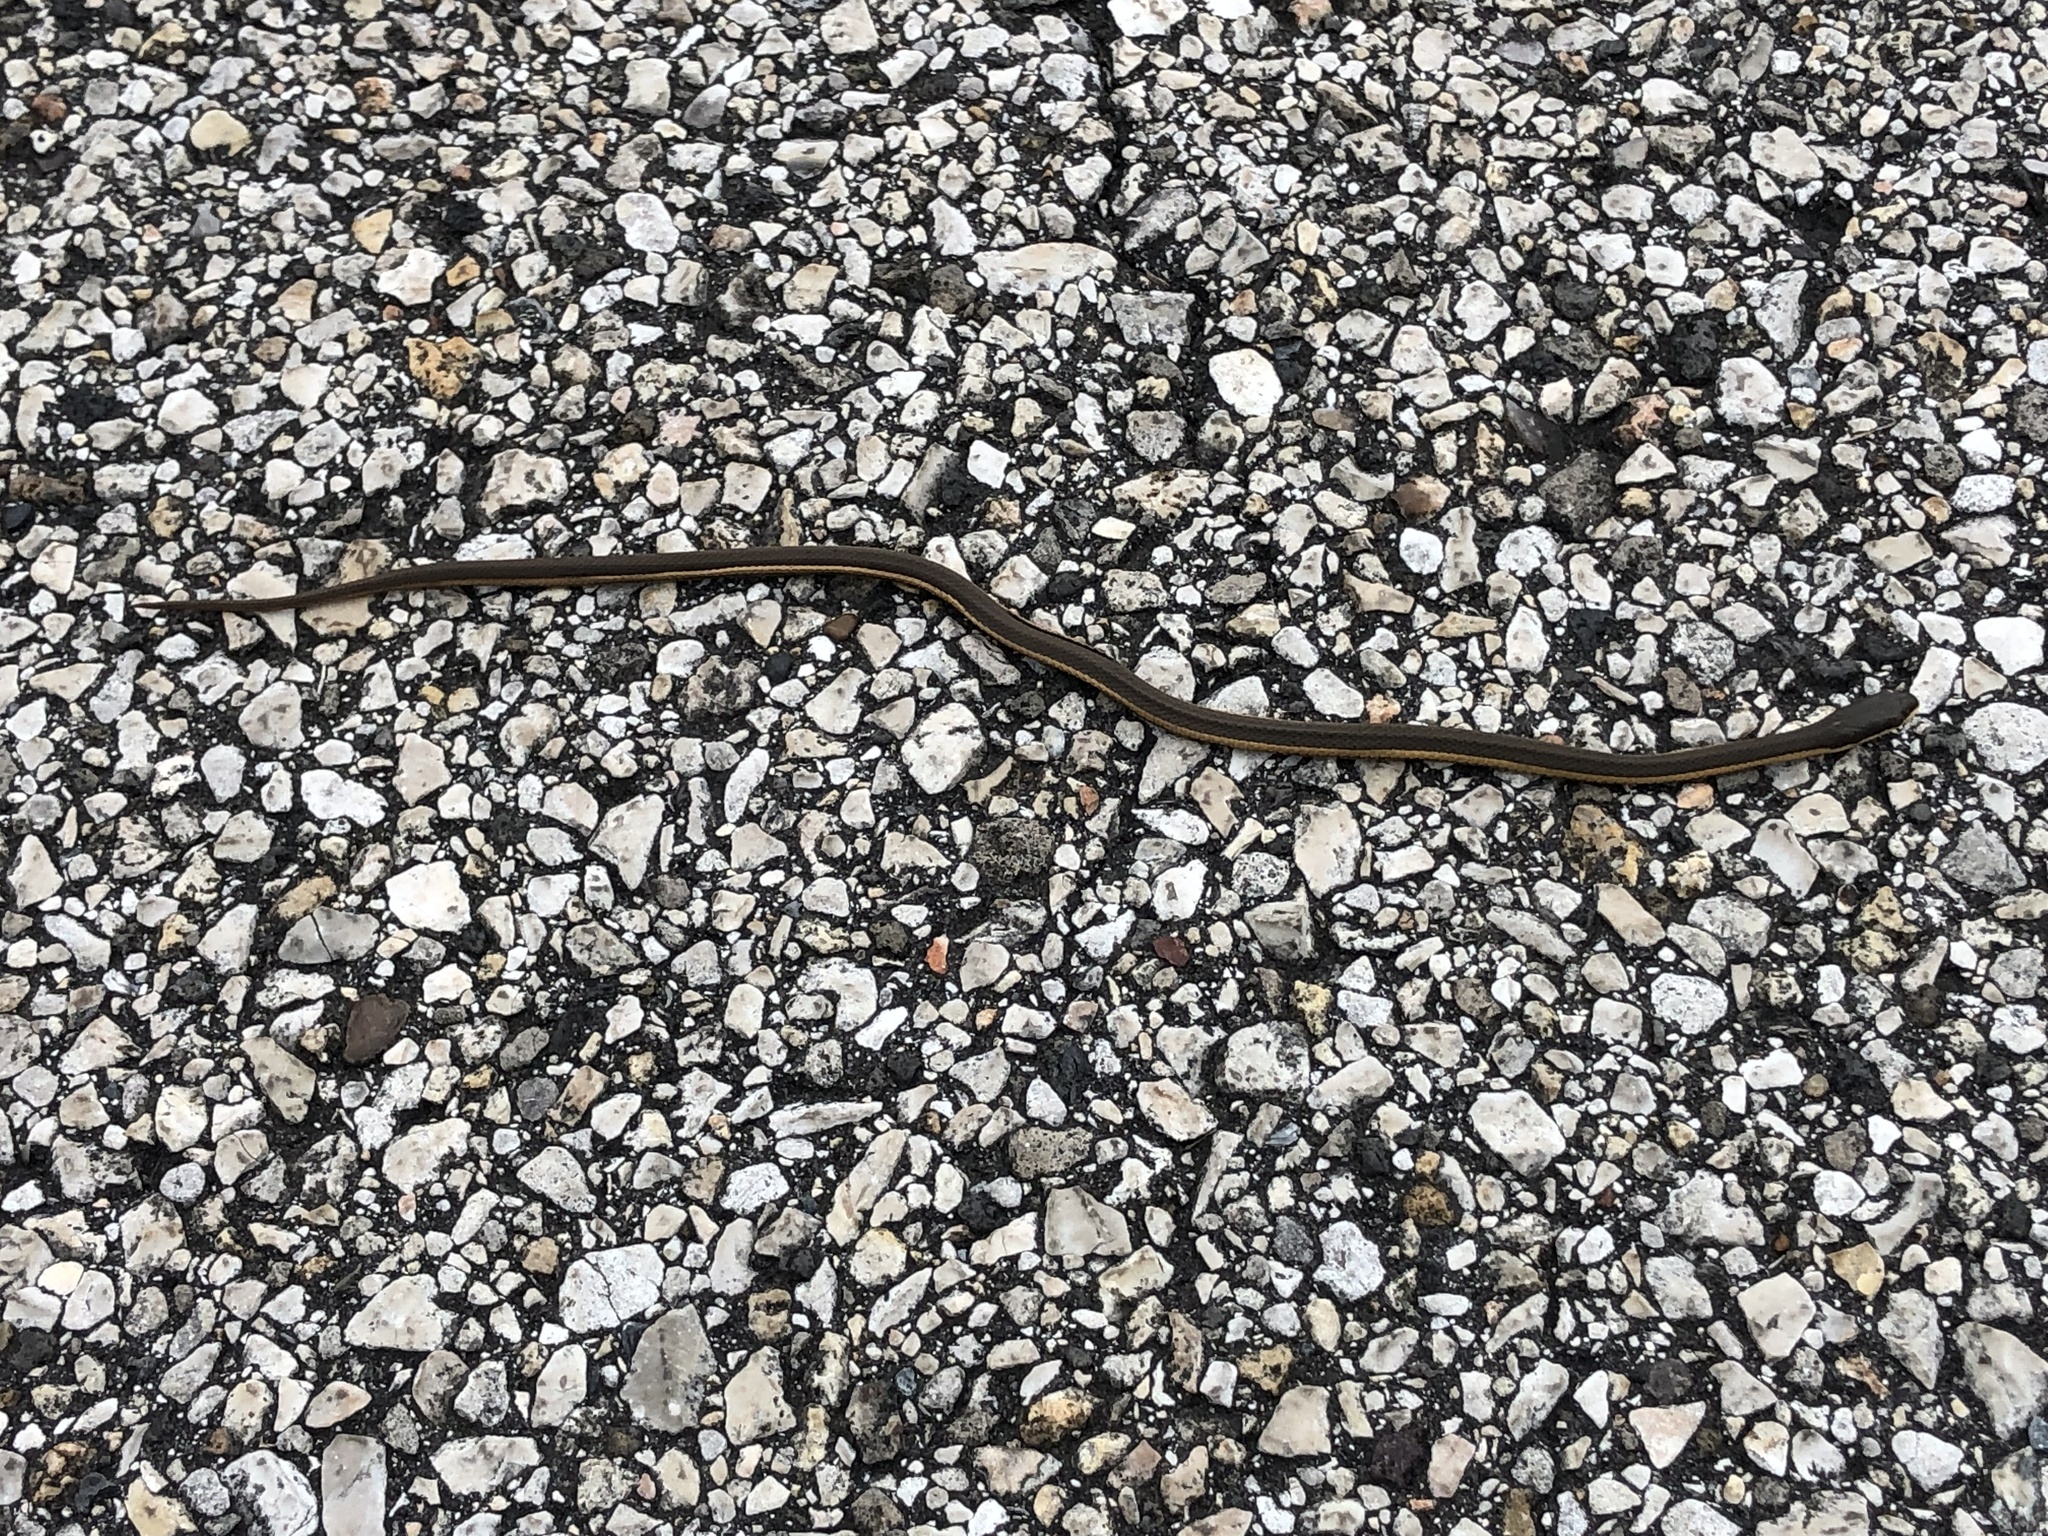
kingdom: Animalia
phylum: Chordata
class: Squamata
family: Colubridae
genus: Regina
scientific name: Regina grahamii
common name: Graham's crayfish snake
